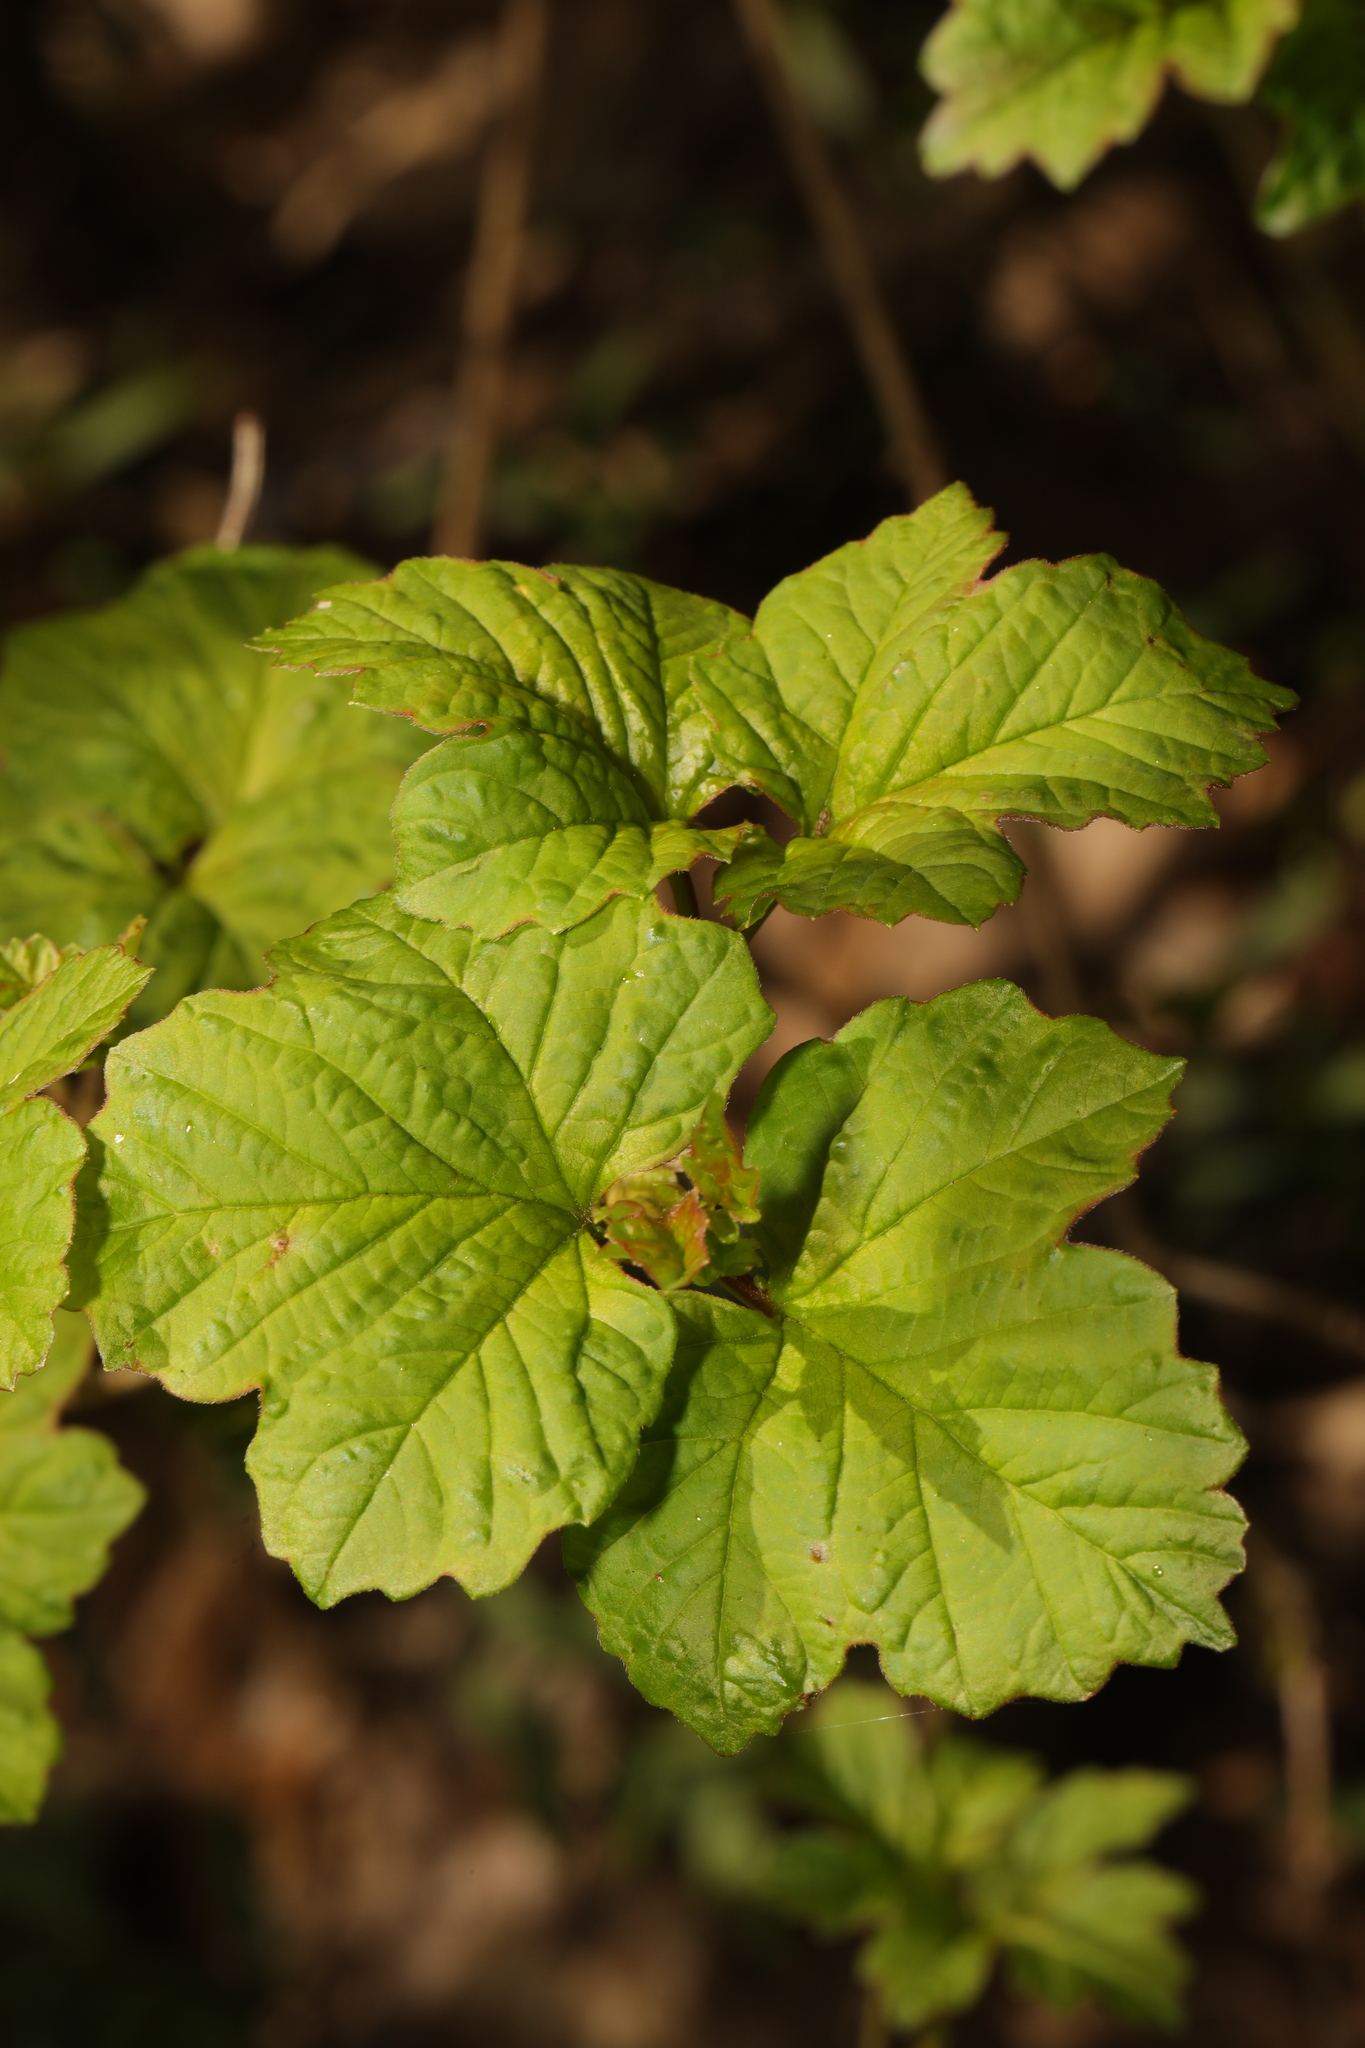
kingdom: Plantae
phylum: Tracheophyta
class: Magnoliopsida
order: Dipsacales
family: Viburnaceae
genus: Viburnum
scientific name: Viburnum opulus
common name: Guelder-rose
